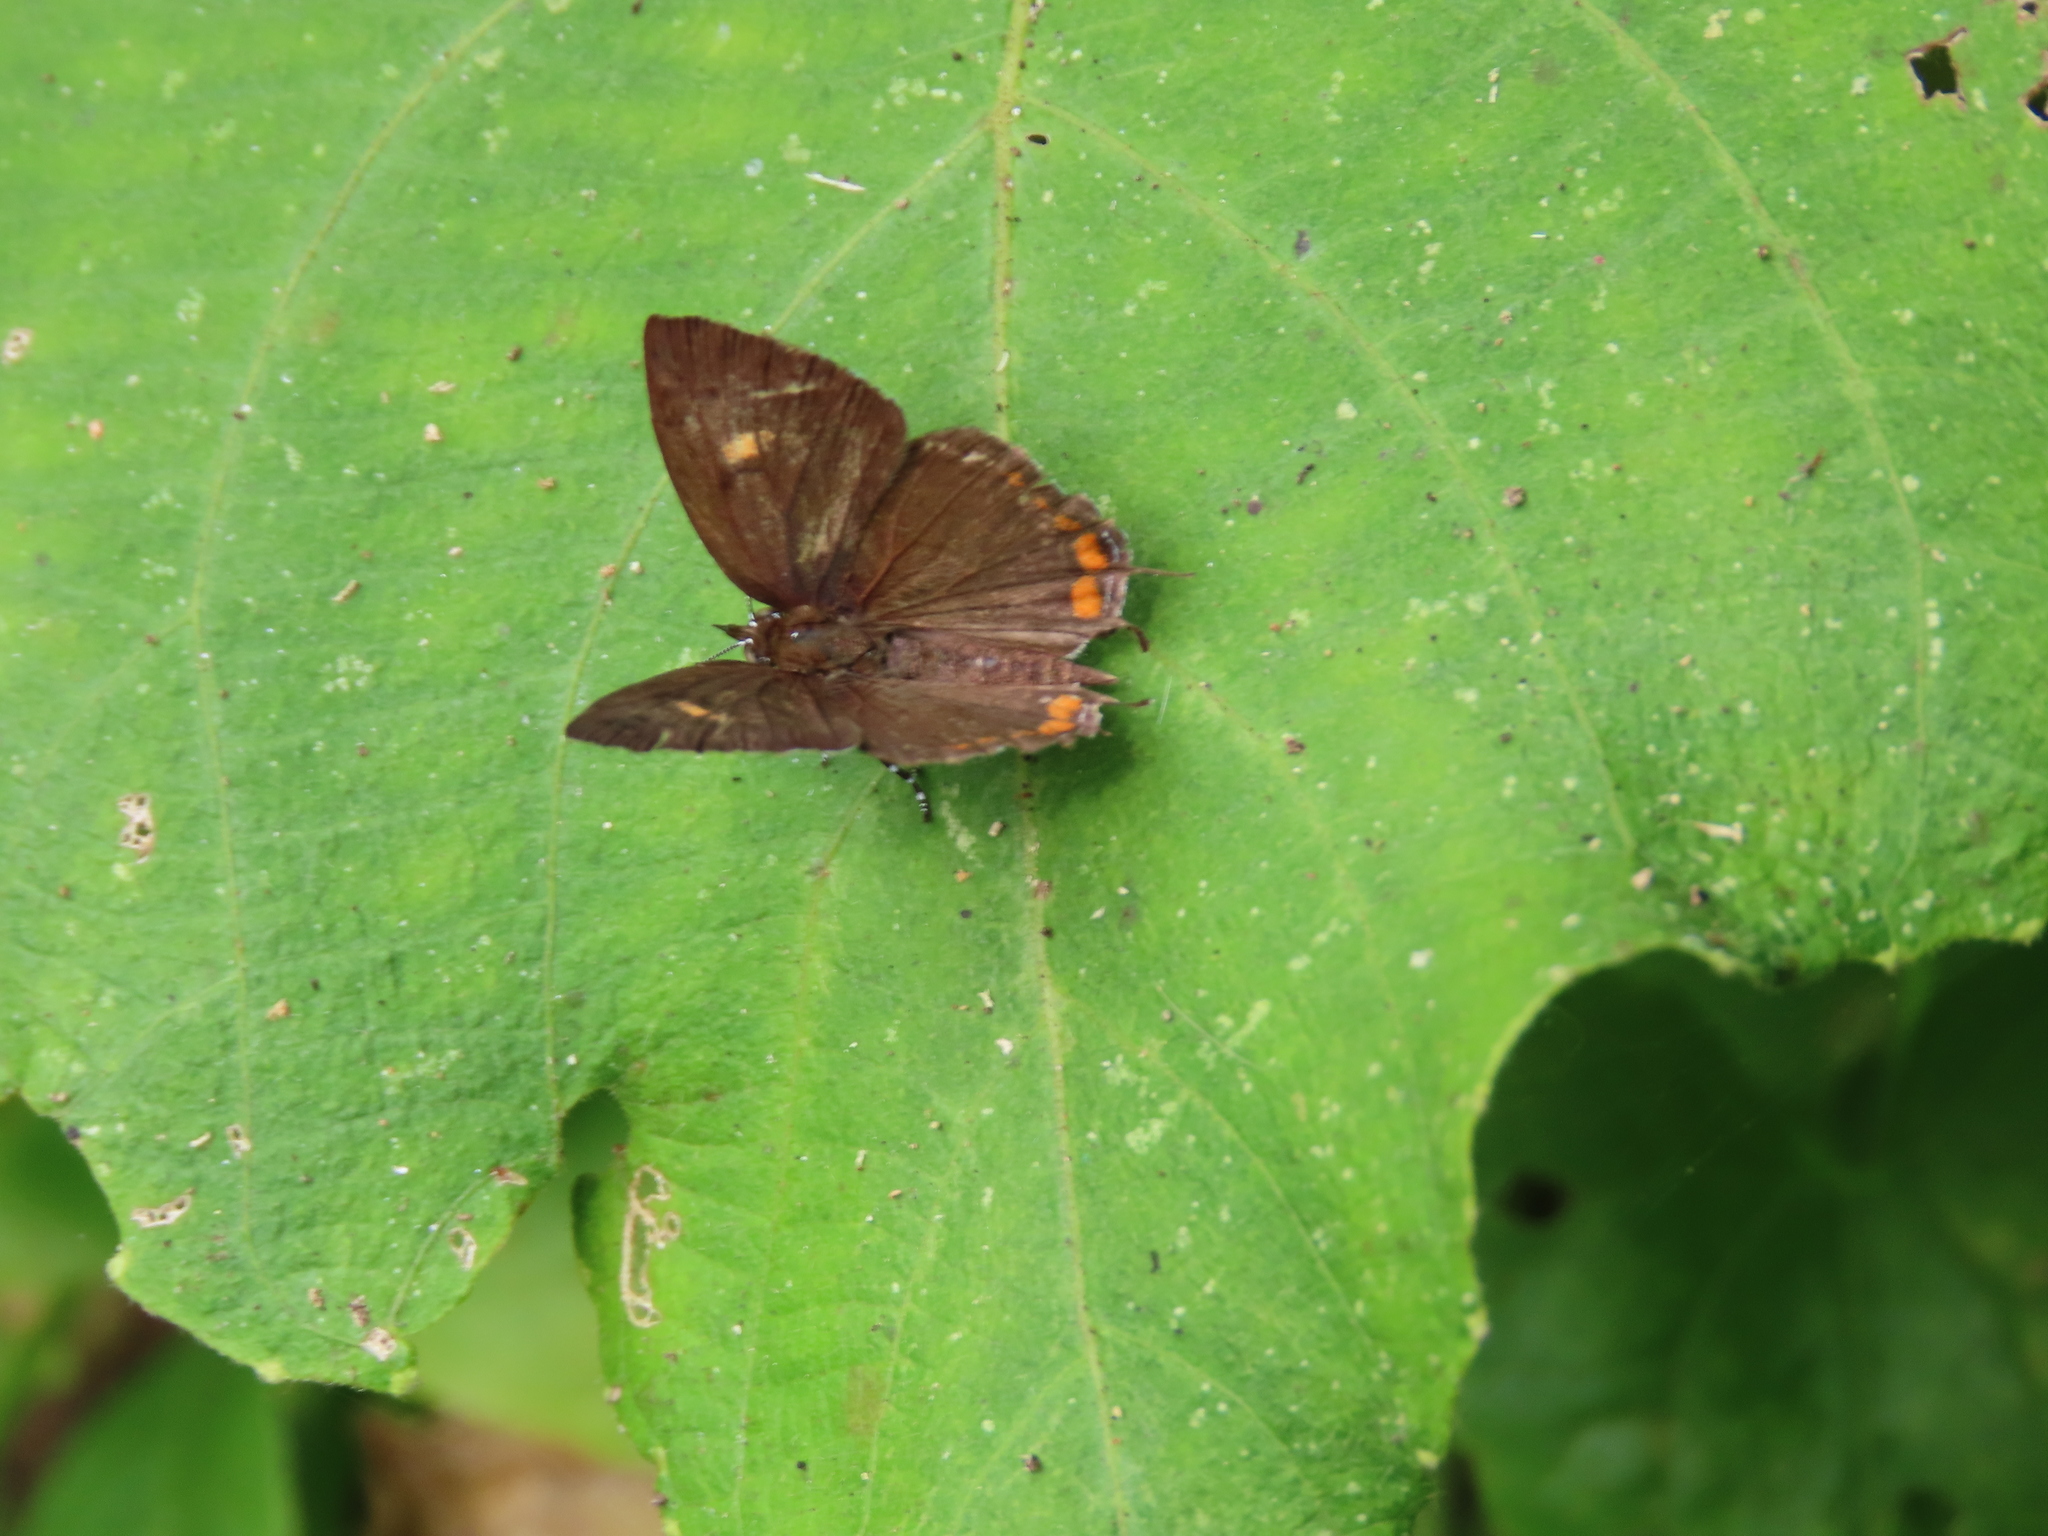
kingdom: Animalia
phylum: Arthropoda
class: Insecta
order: Lepidoptera
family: Lycaenidae
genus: Rathinda
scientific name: Rathinda amor
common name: Monkey puzzle
